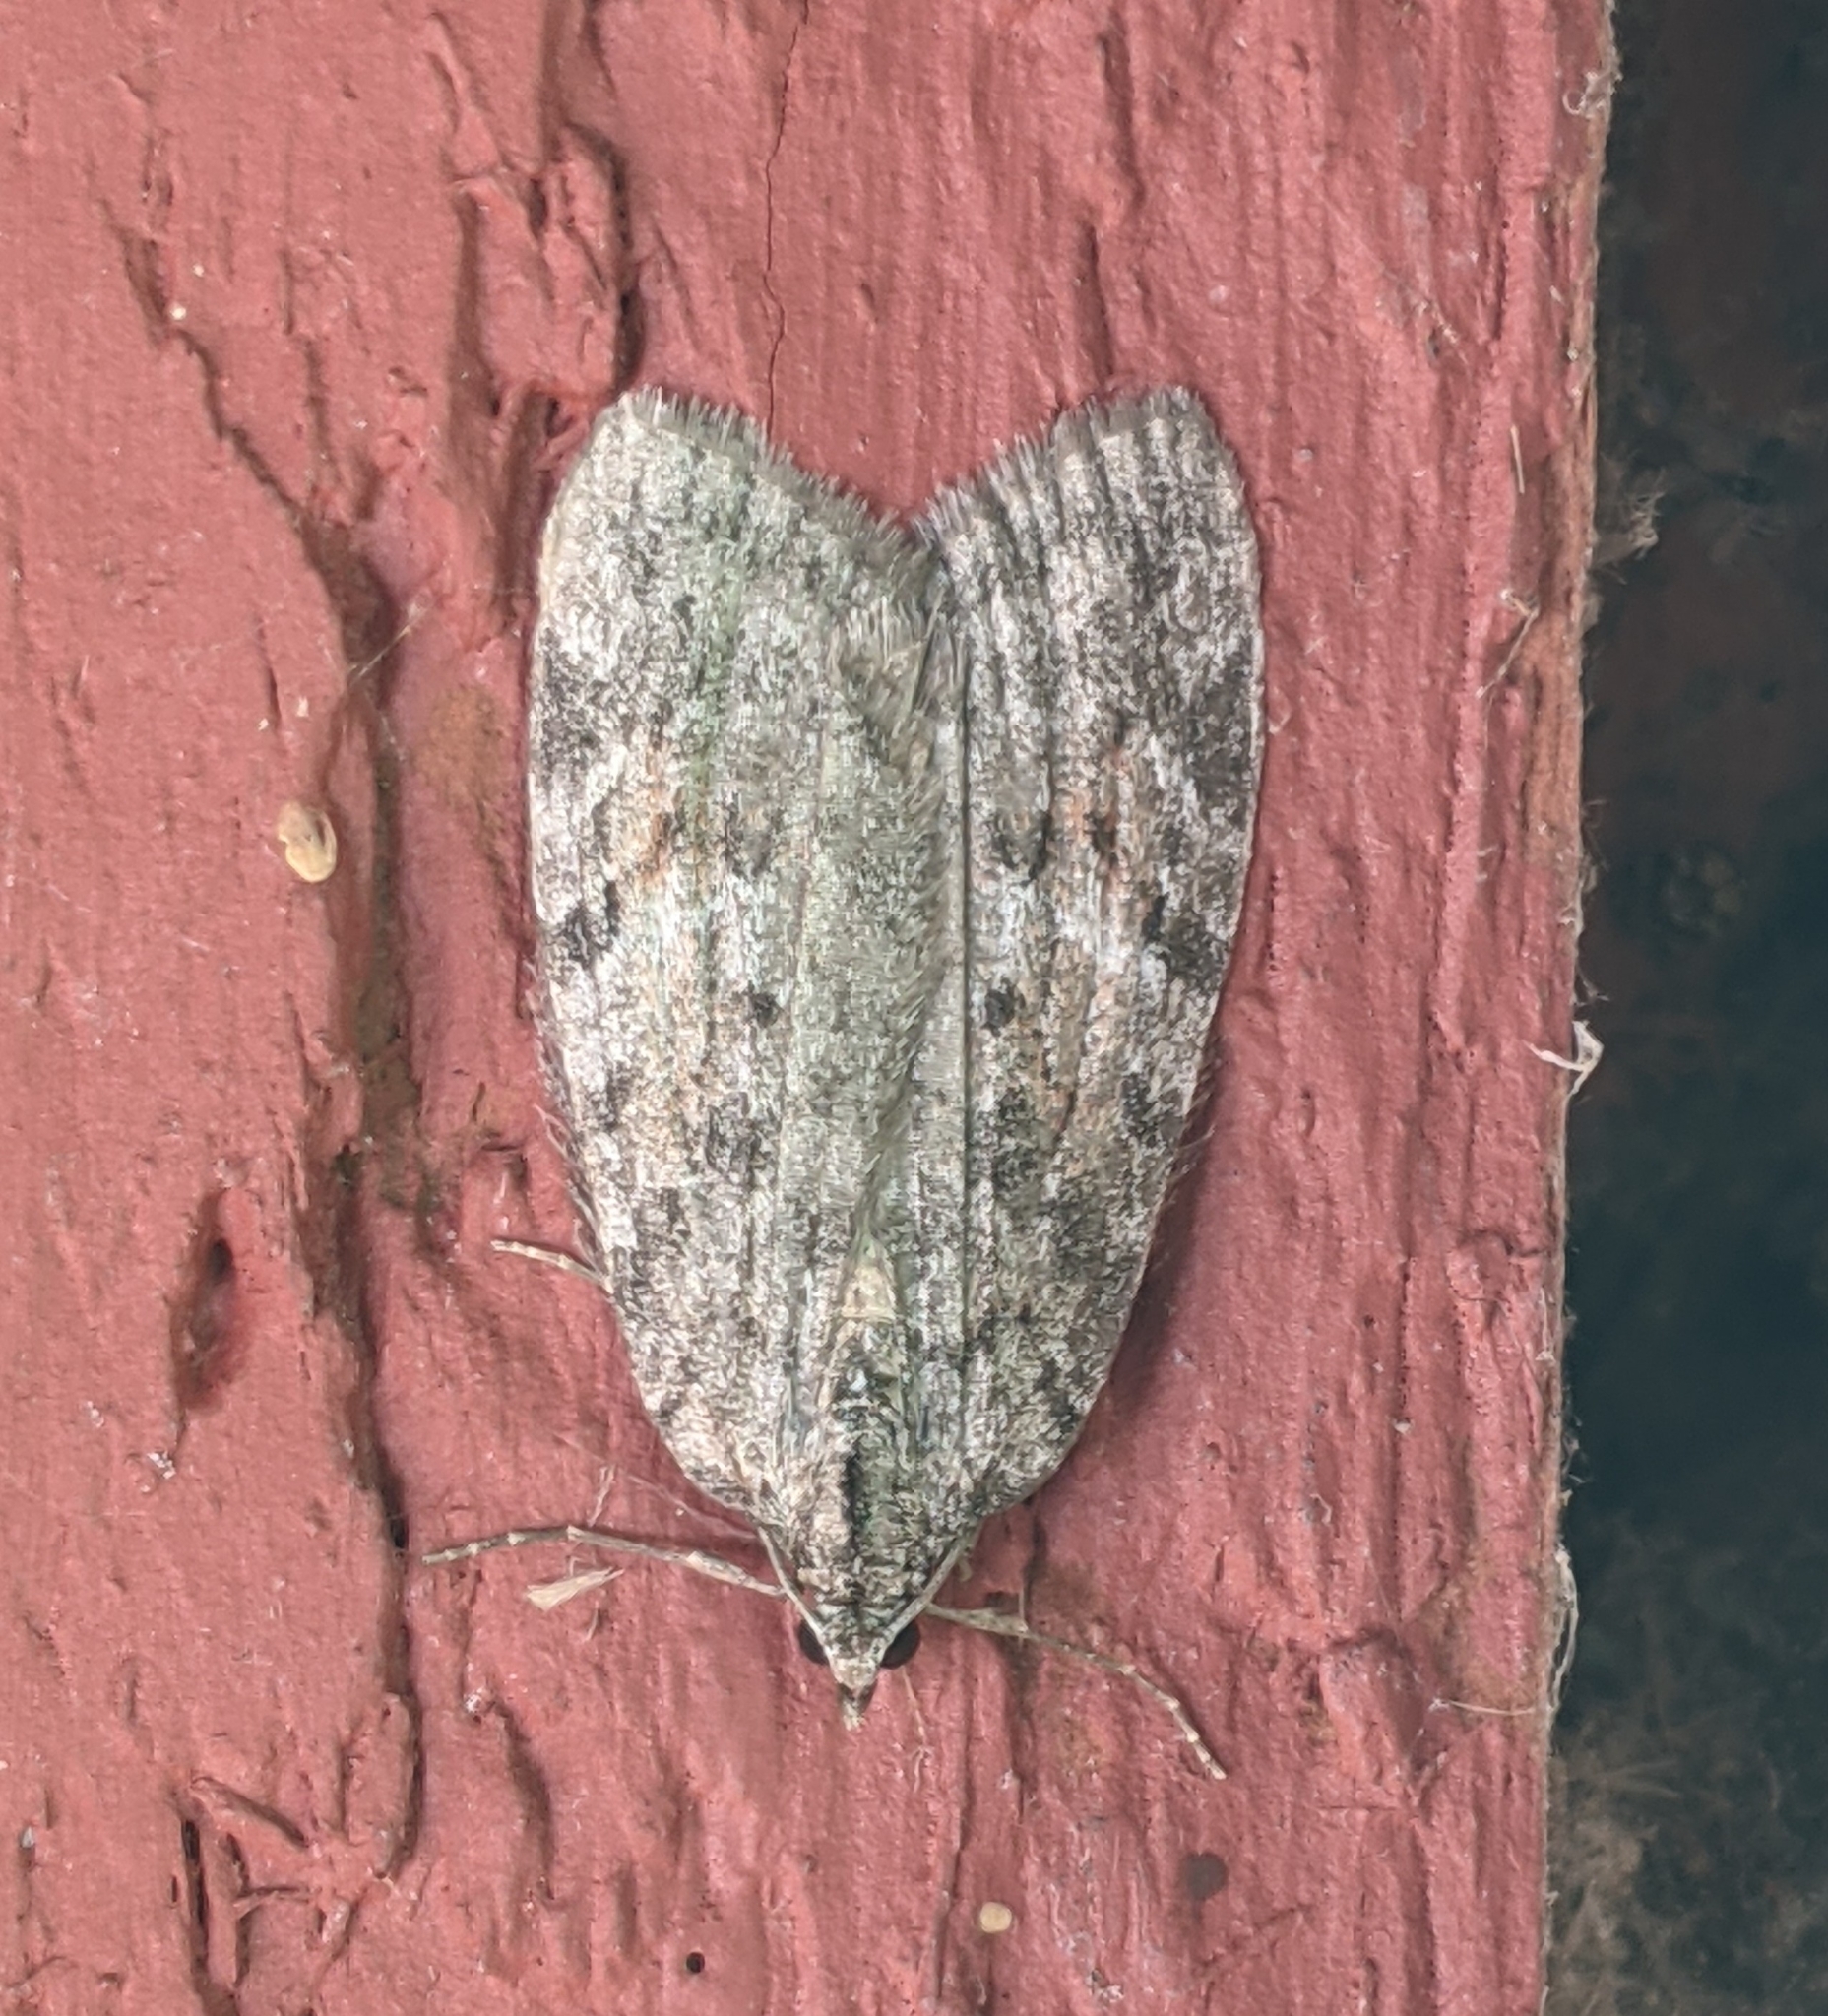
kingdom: Animalia
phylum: Arthropoda
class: Insecta
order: Lepidoptera
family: Geometridae
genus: Hydriomena
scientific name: Hydriomena manzanita
